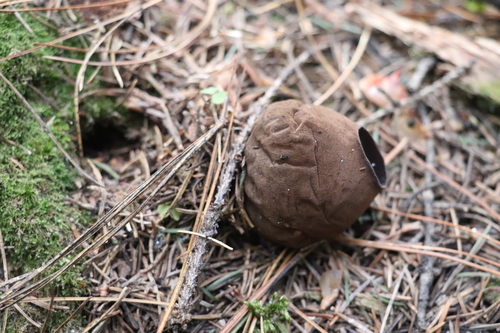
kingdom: Fungi
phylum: Ascomycota
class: Pezizomycetes
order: Pezizales
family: Sarcosomataceae
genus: Sarcosoma
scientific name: Sarcosoma globosum
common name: Charred-pancake cup
